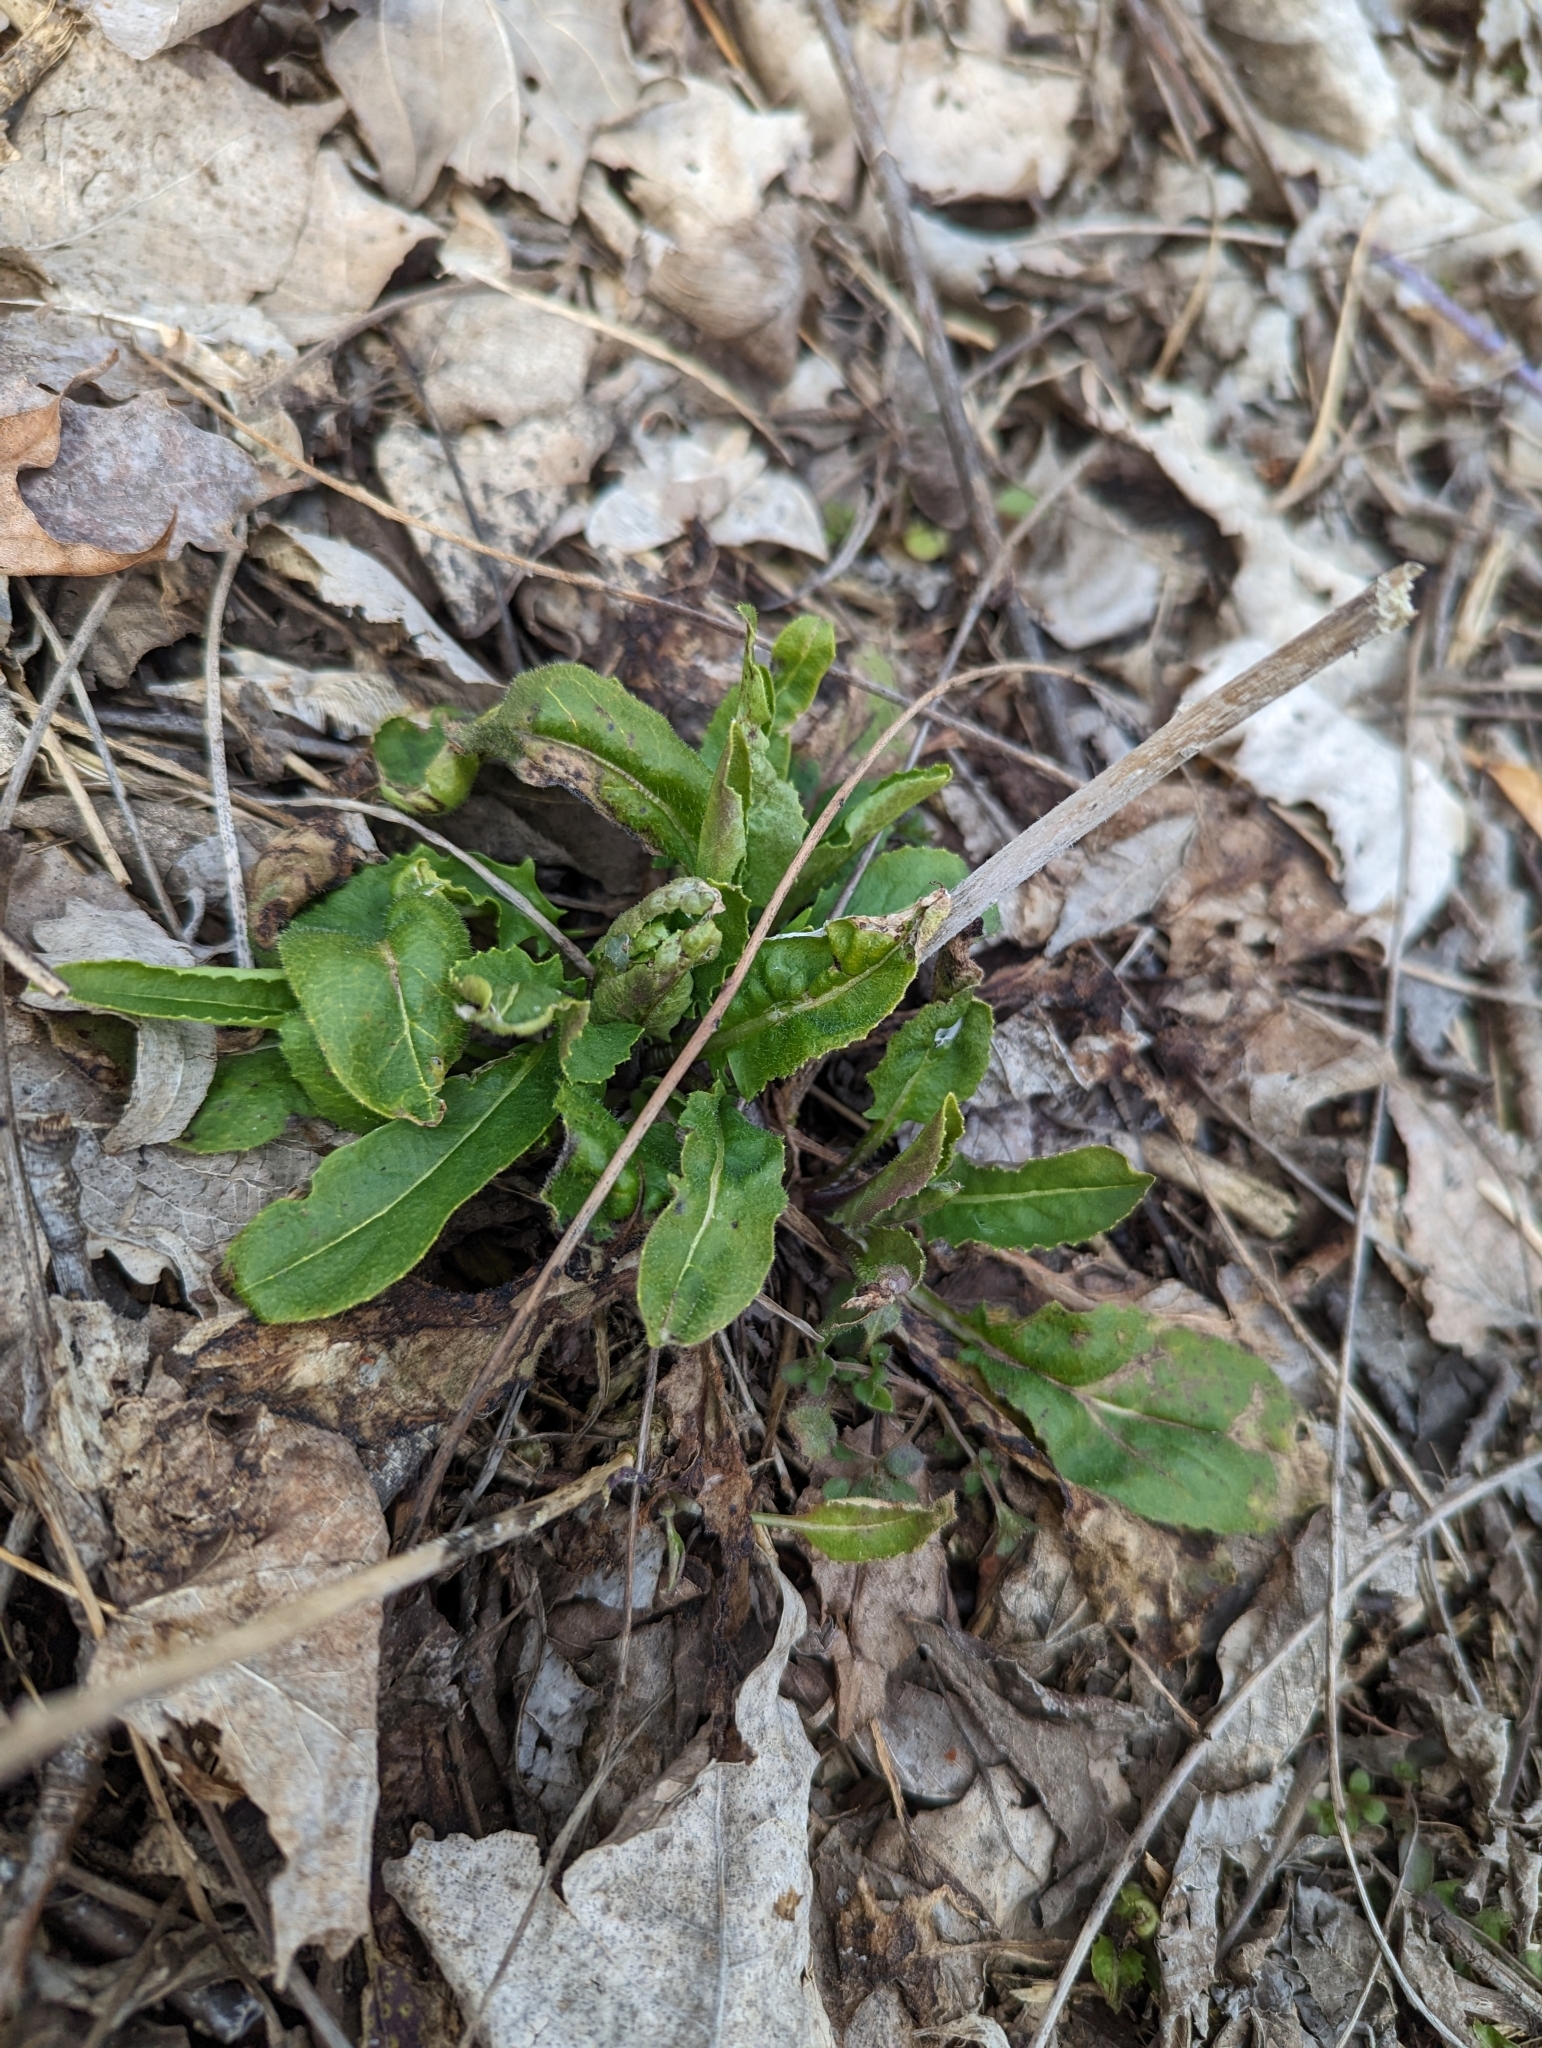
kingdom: Plantae
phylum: Tracheophyta
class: Magnoliopsida
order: Brassicales
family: Brassicaceae
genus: Hesperis
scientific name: Hesperis matronalis
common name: Dame's-violet
